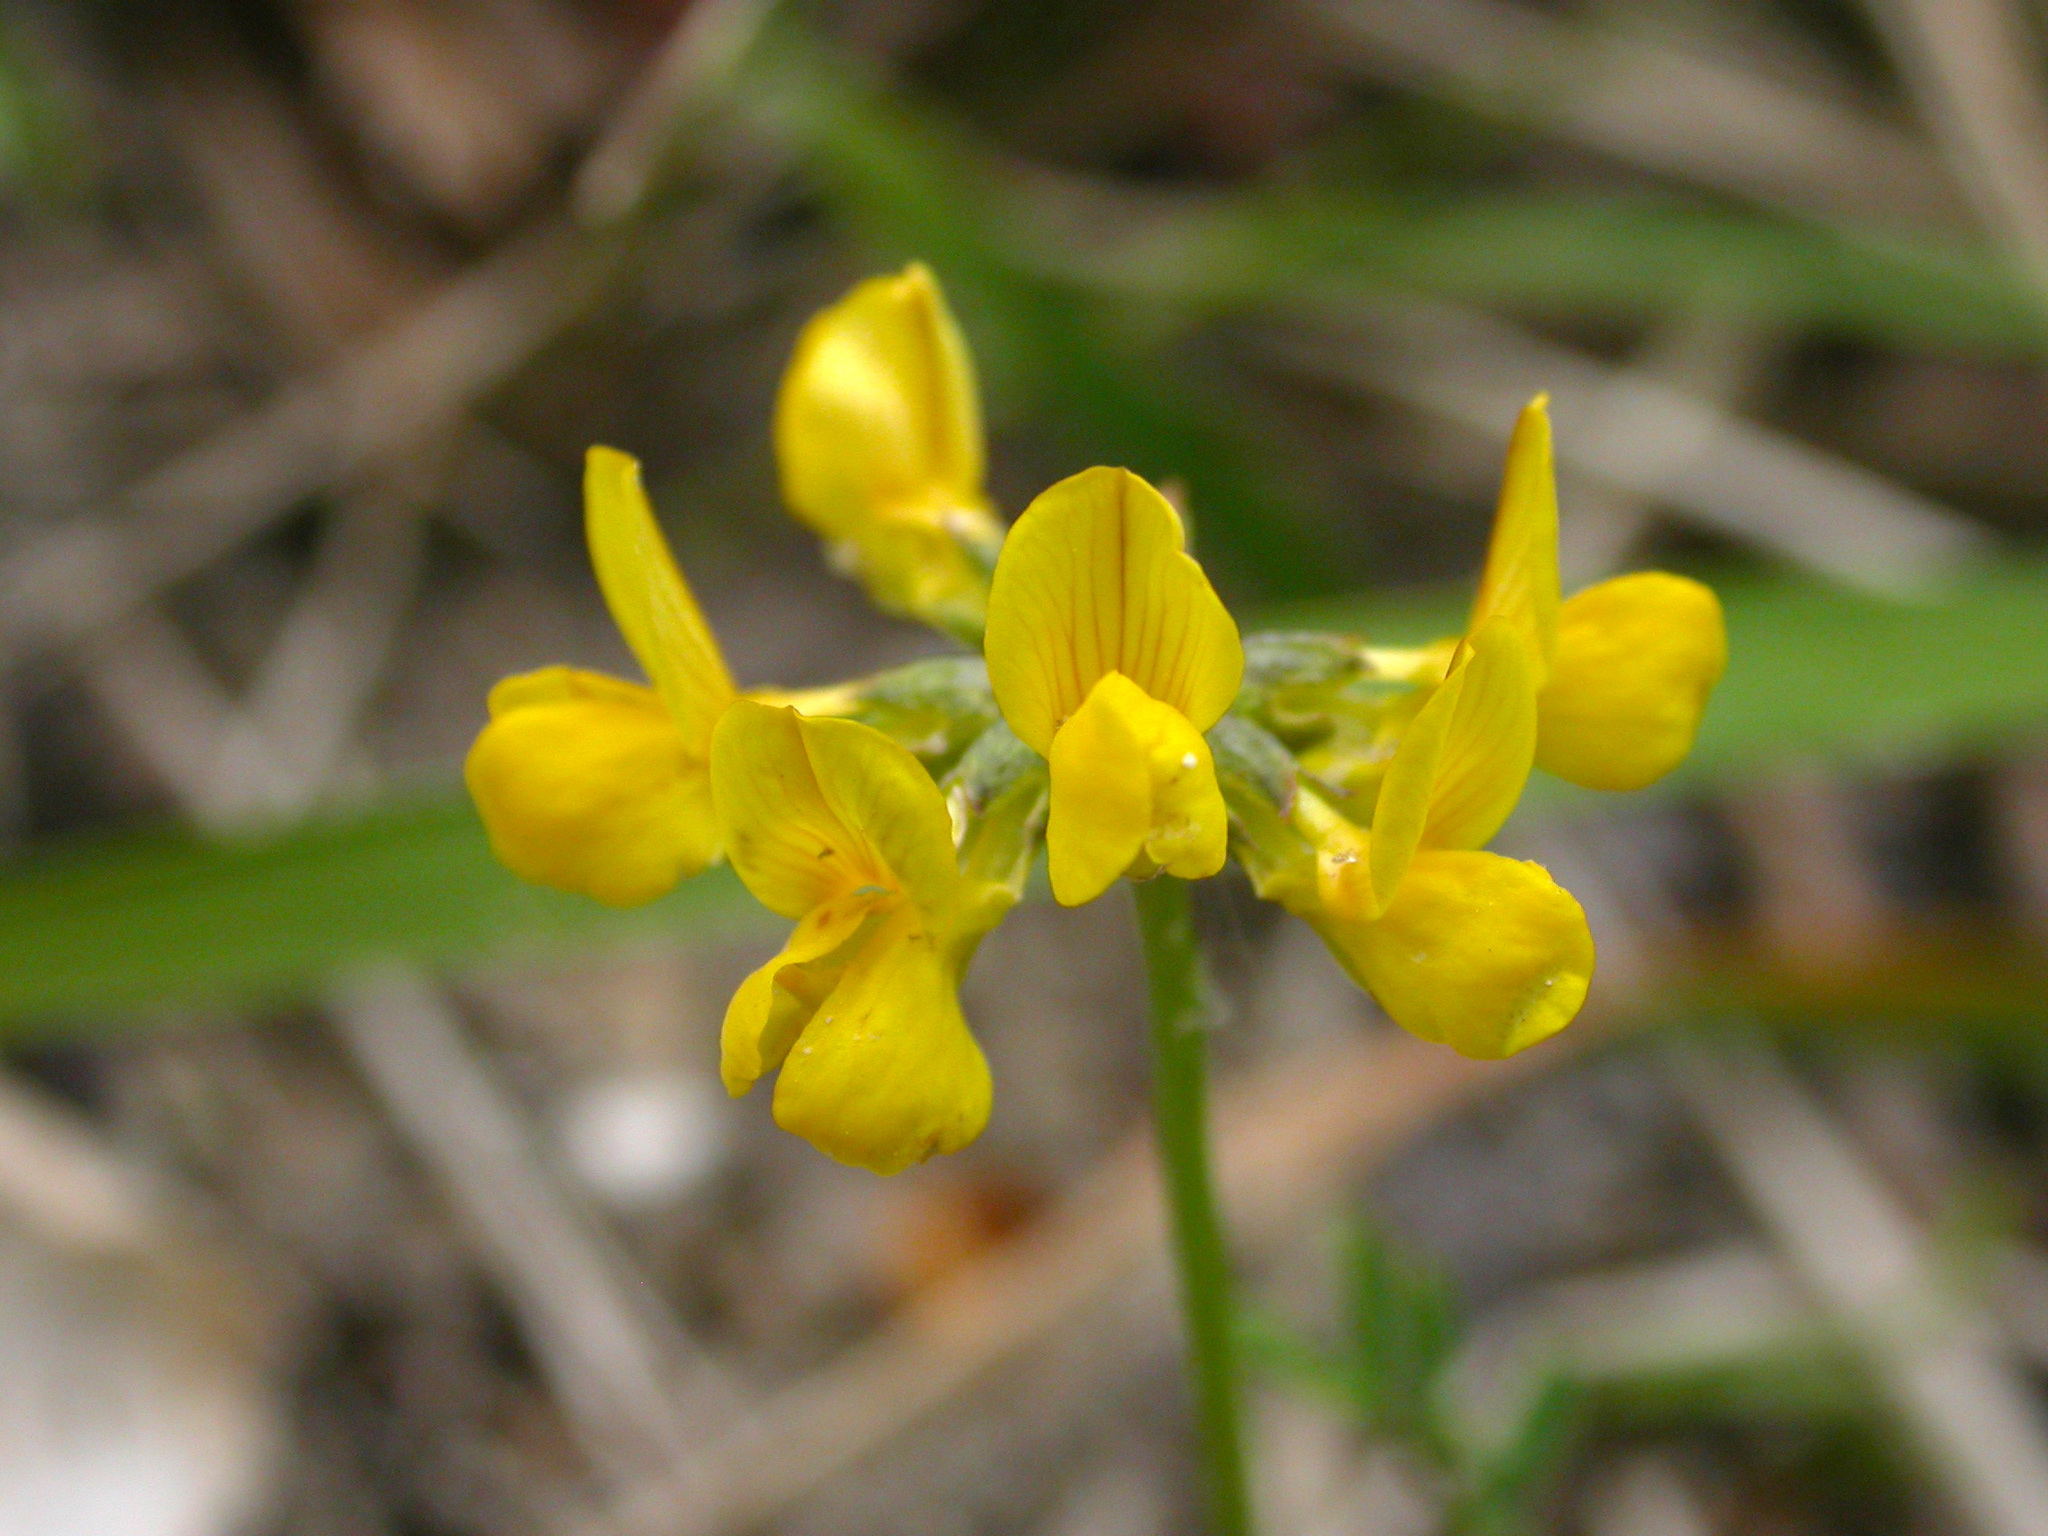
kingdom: Plantae
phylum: Tracheophyta
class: Magnoliopsida
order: Fabales
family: Fabaceae
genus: Hippocrepis
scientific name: Hippocrepis comosa
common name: Horseshoe vetch
